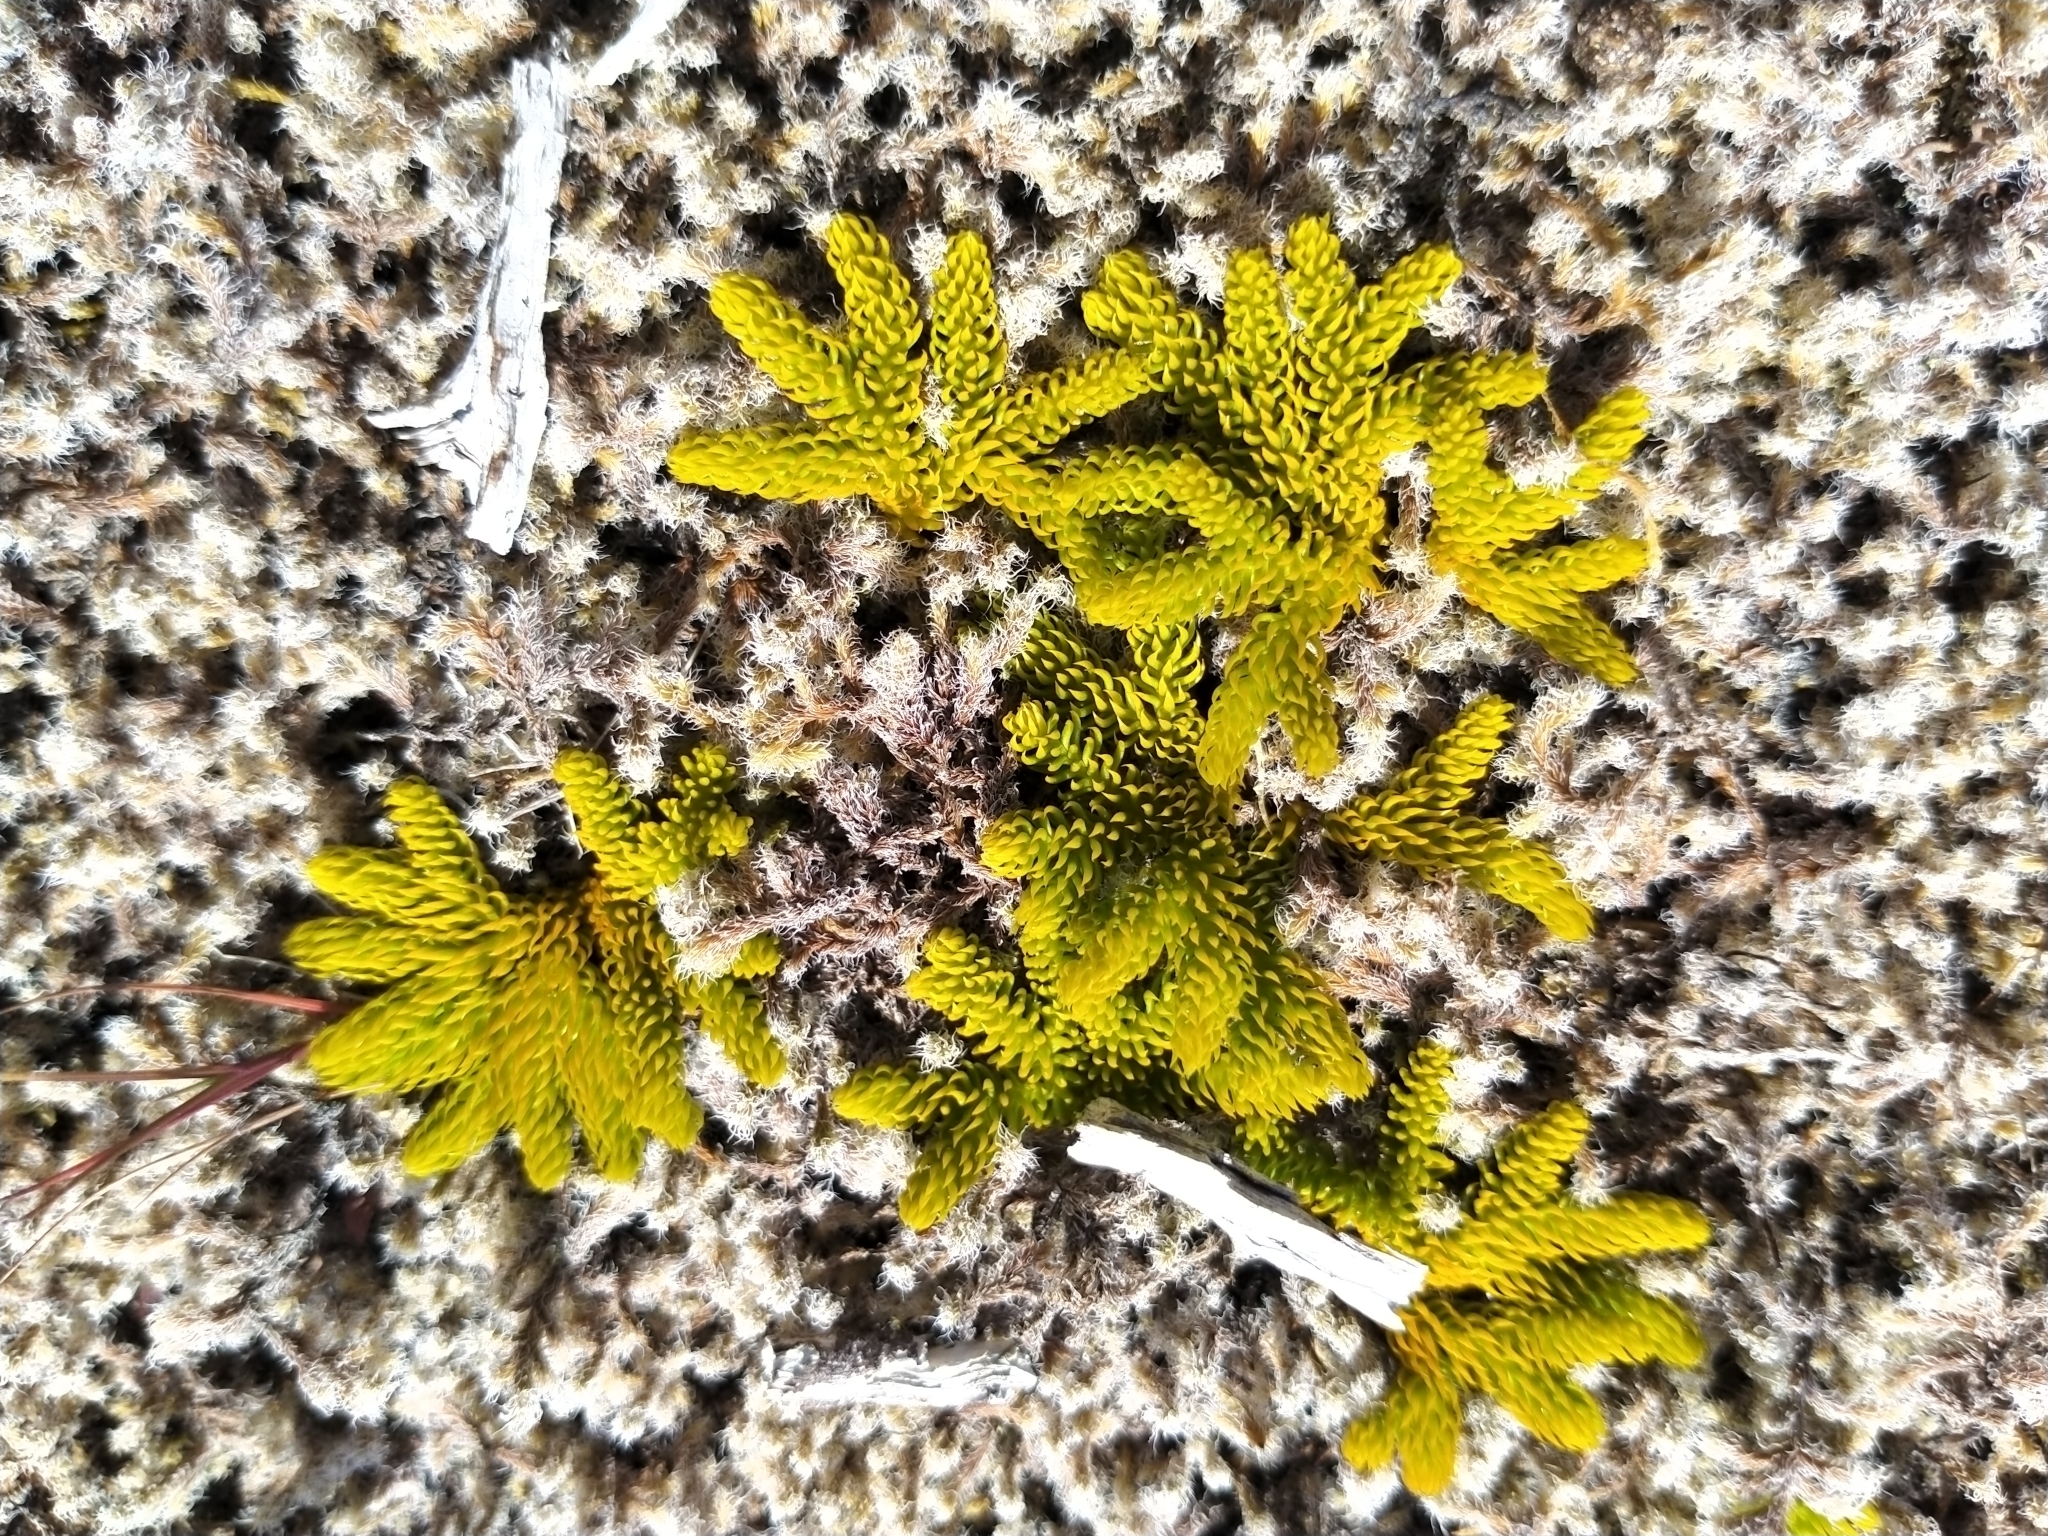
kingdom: Plantae
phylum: Tracheophyta
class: Lycopodiopsida
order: Lycopodiales
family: Lycopodiaceae
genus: Austrolycopodium
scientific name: Austrolycopodium fastigiatum
